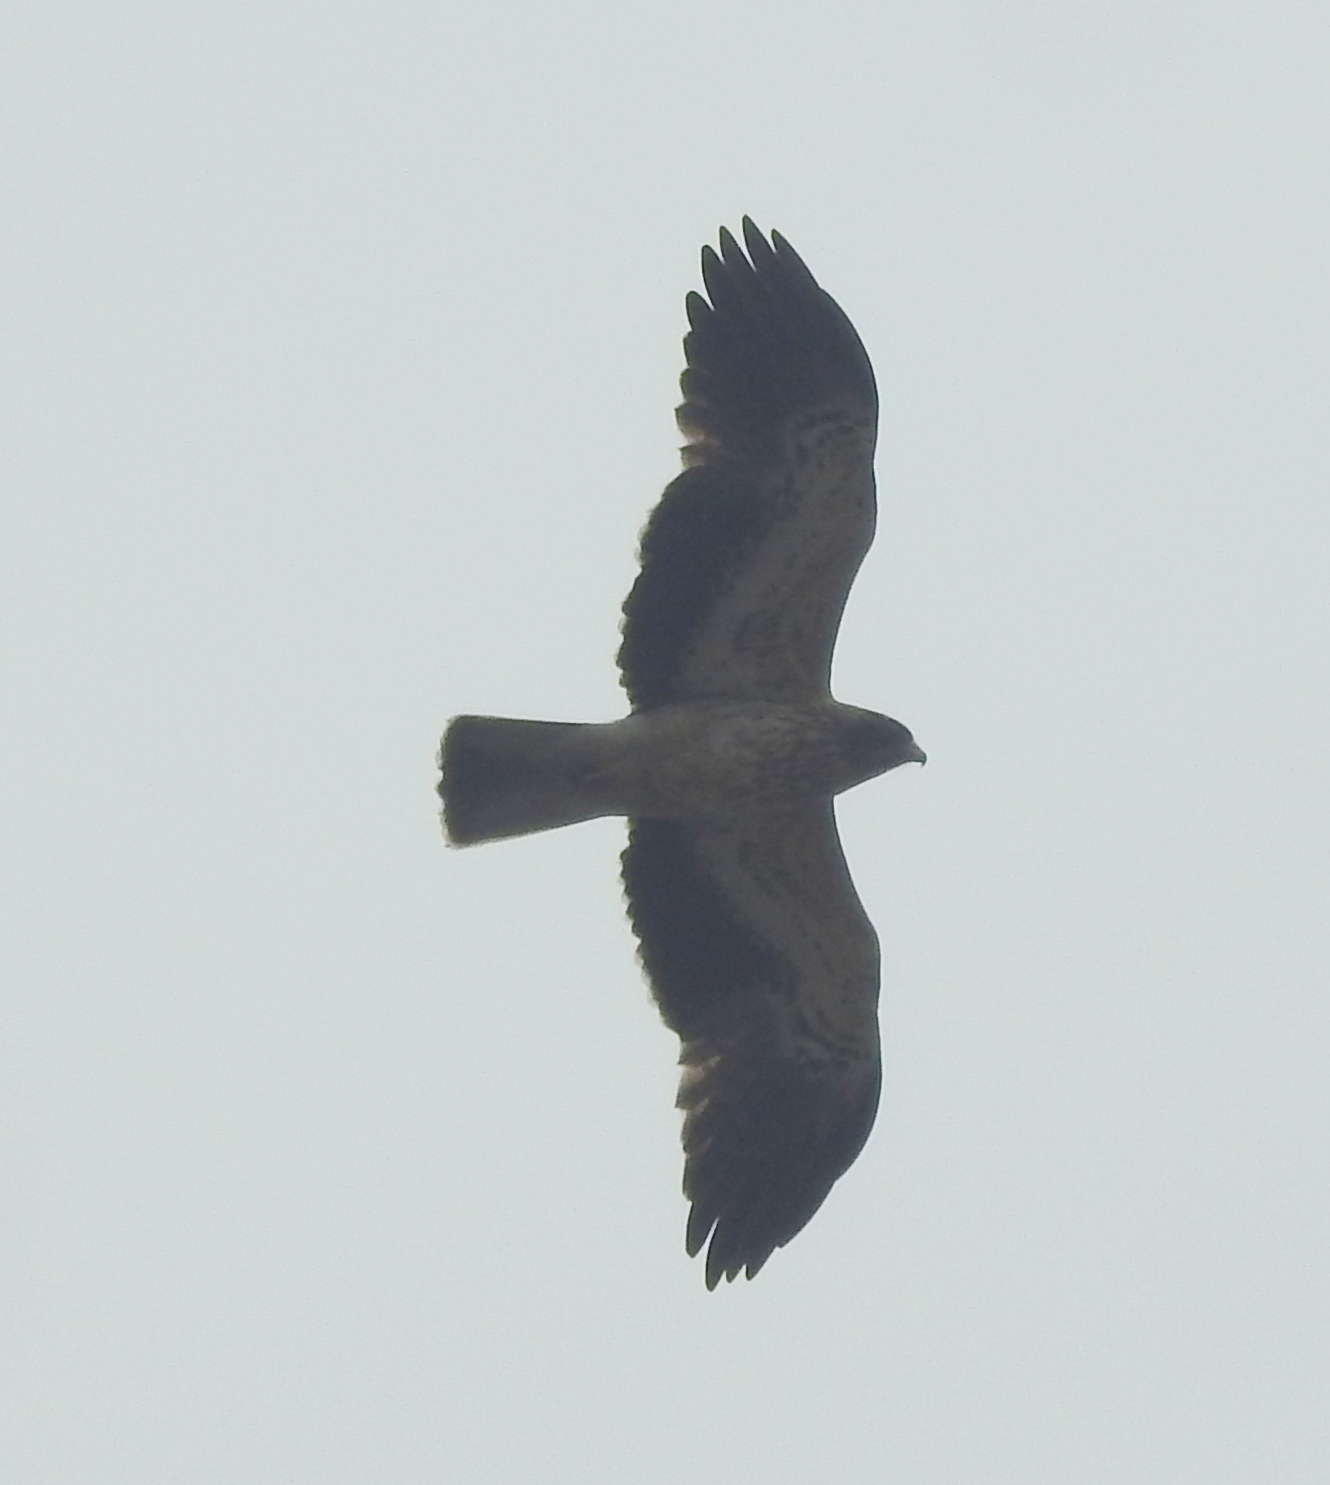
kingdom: Animalia
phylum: Chordata
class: Aves
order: Accipitriformes
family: Accipitridae
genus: Hieraaetus
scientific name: Hieraaetus pennatus
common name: Booted eagle
